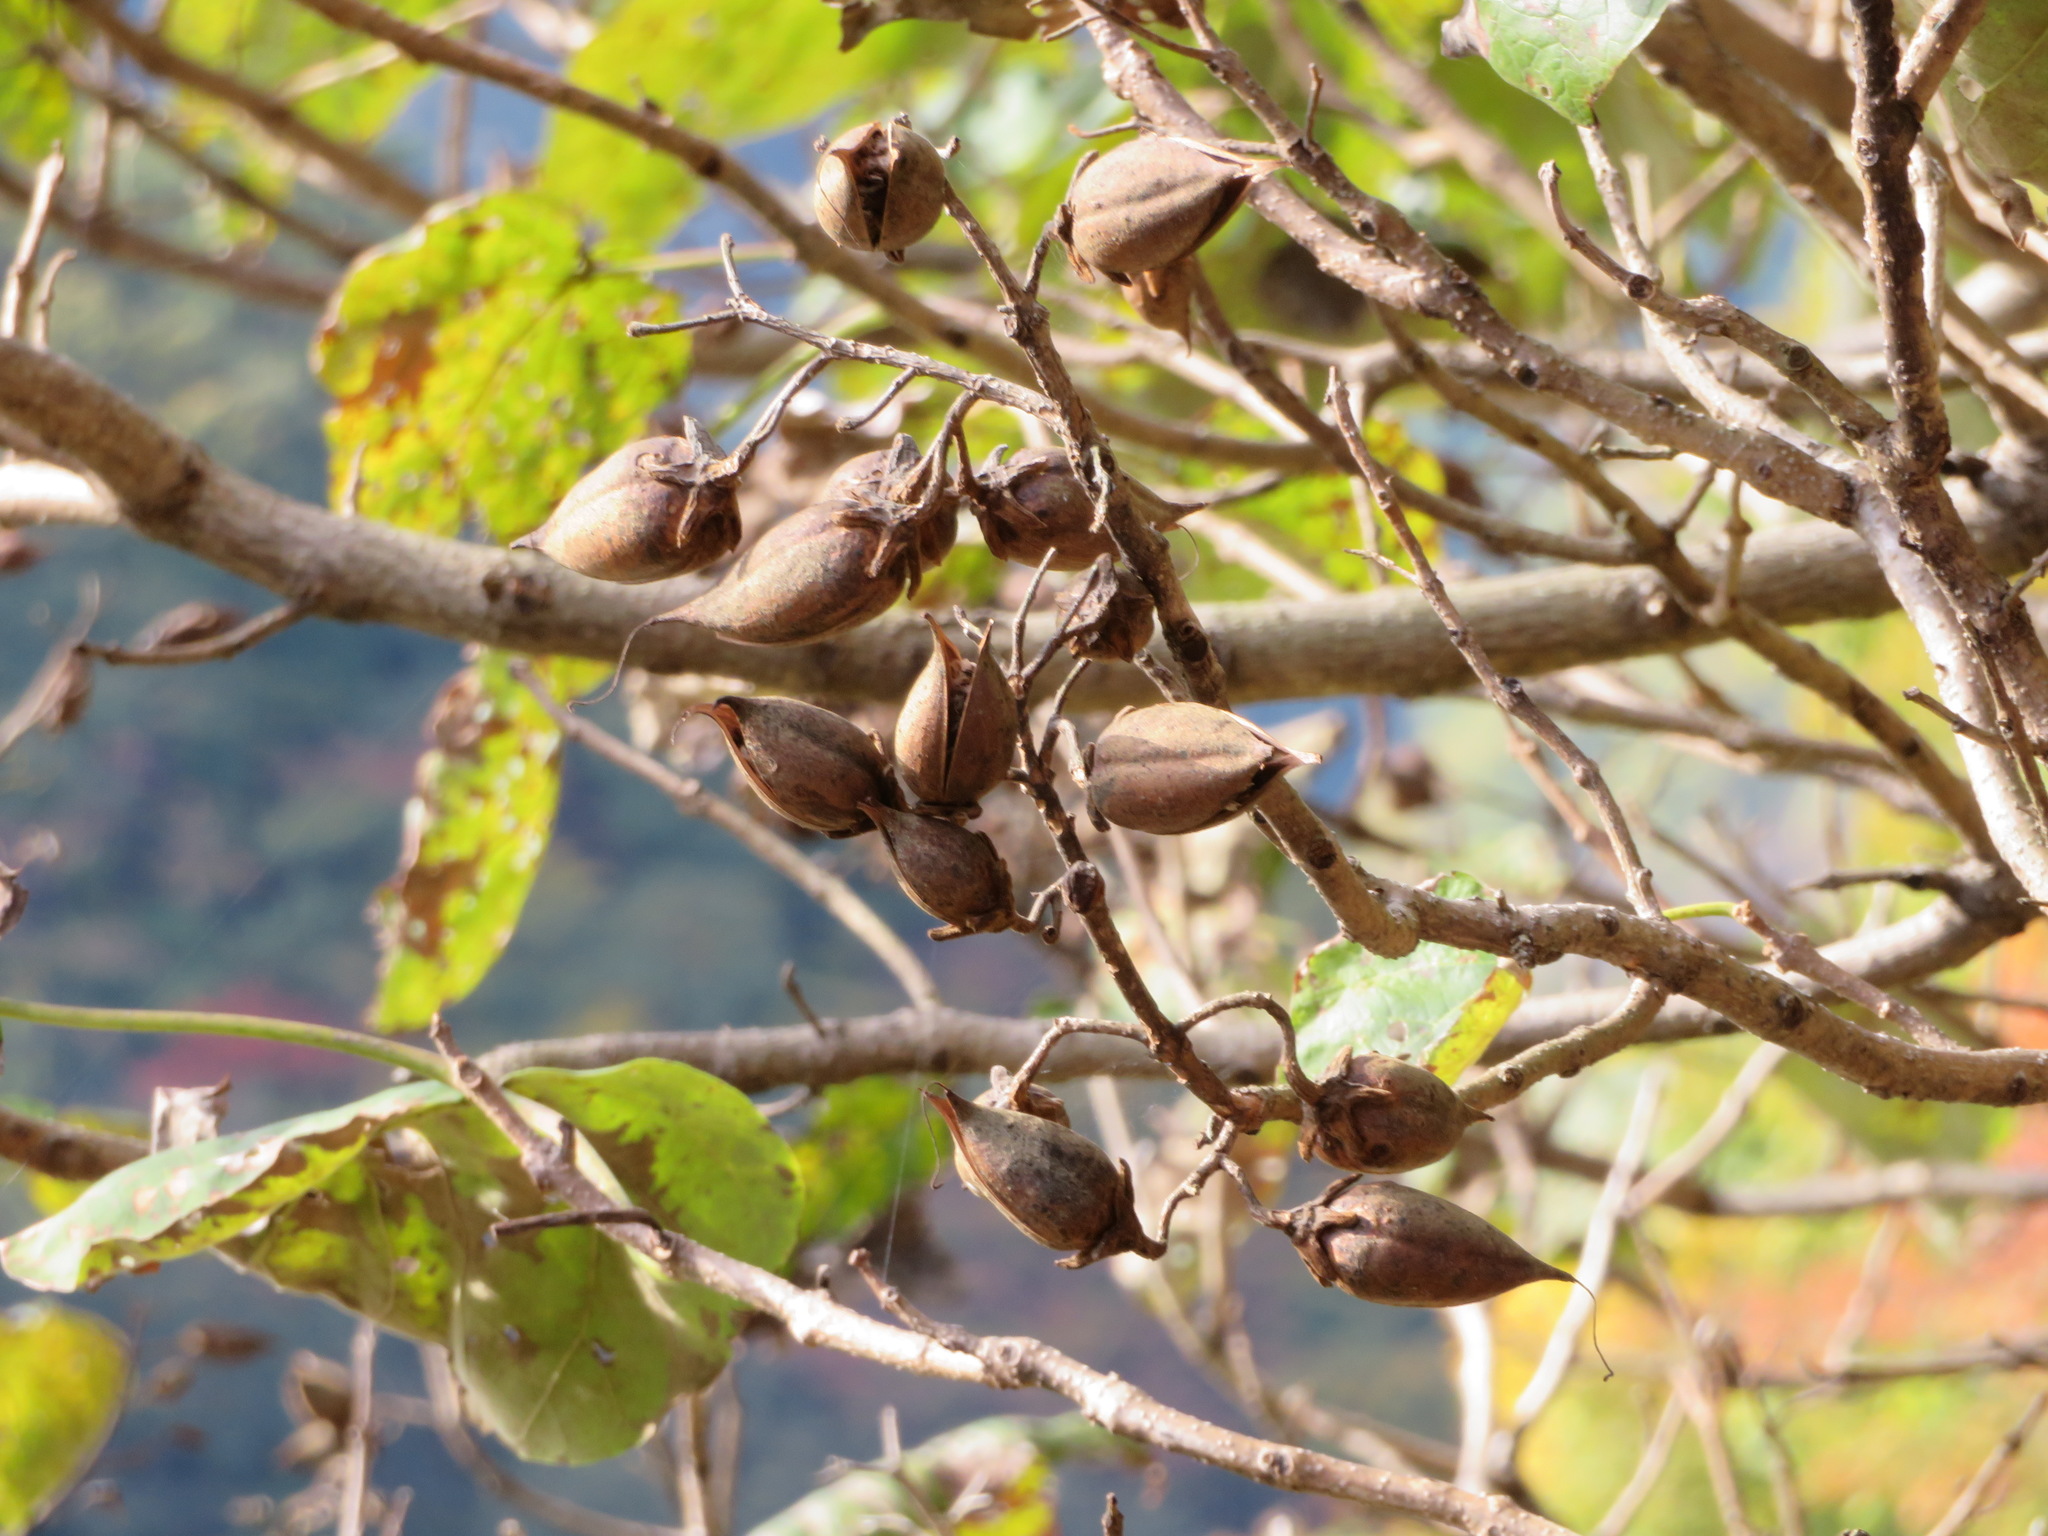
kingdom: Plantae
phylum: Tracheophyta
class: Magnoliopsida
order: Lamiales
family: Paulowniaceae
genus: Paulownia
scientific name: Paulownia tomentosa
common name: Foxglove-tree
